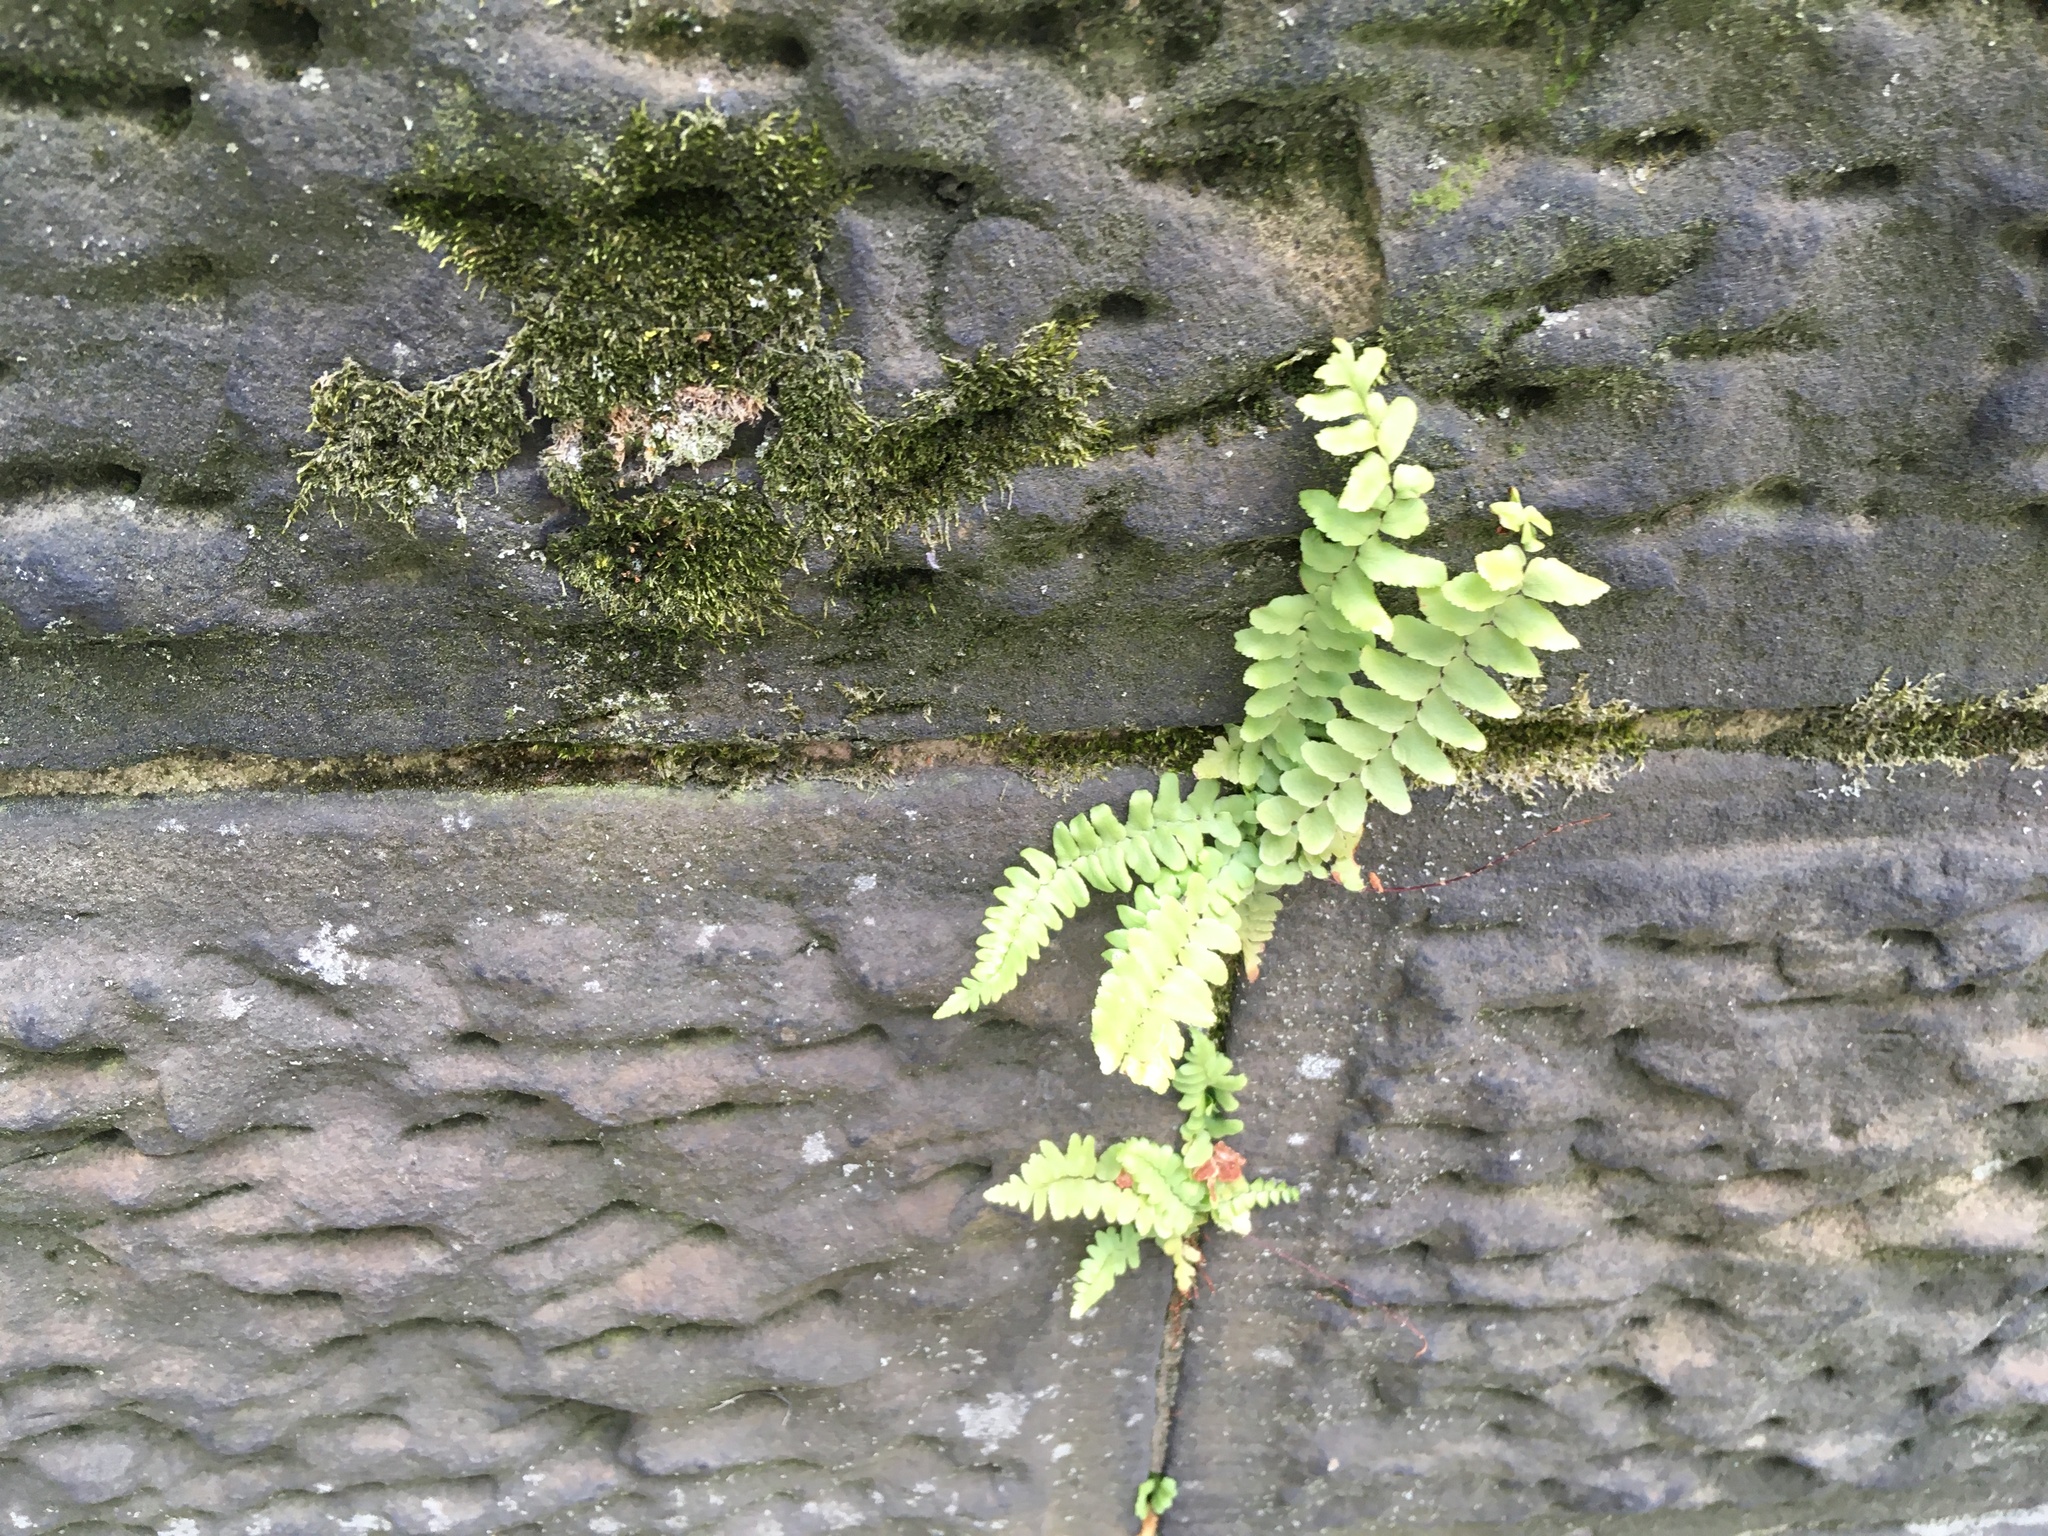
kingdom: Plantae
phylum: Tracheophyta
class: Polypodiopsida
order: Polypodiales
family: Aspleniaceae
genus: Asplenium
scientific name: Asplenium platyneuron
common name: Ebony spleenwort
